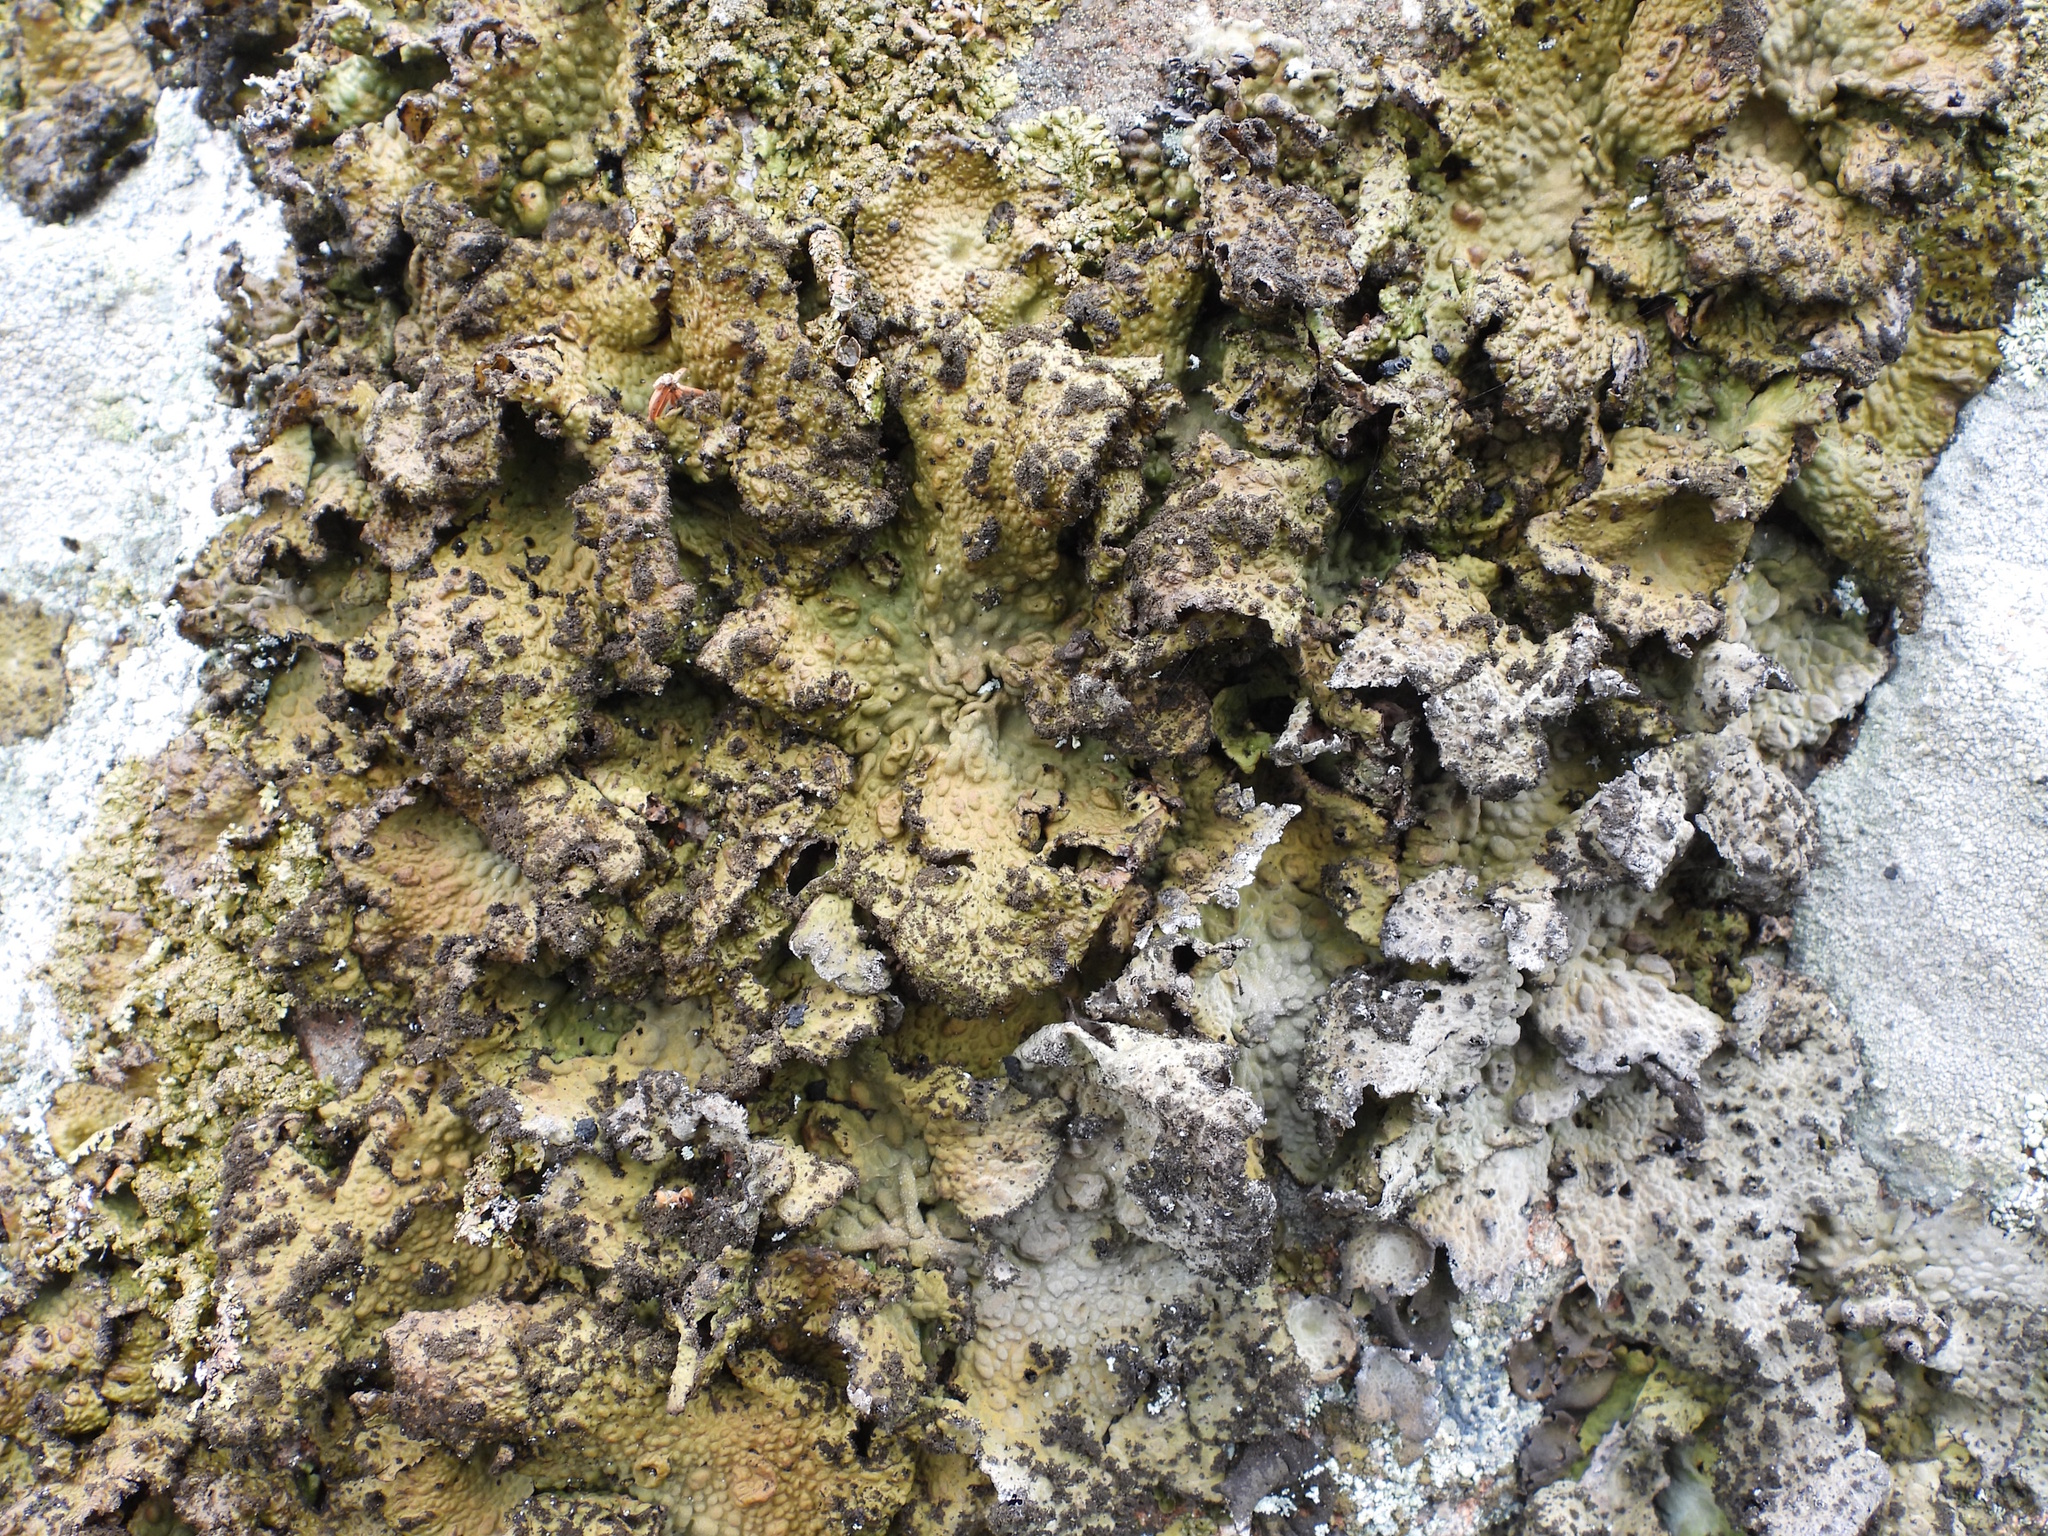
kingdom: Fungi
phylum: Ascomycota
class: Lecanoromycetes
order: Umbilicariales
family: Umbilicariaceae
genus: Lasallia
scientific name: Lasallia pustulata
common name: Blistered toadskin lichen
